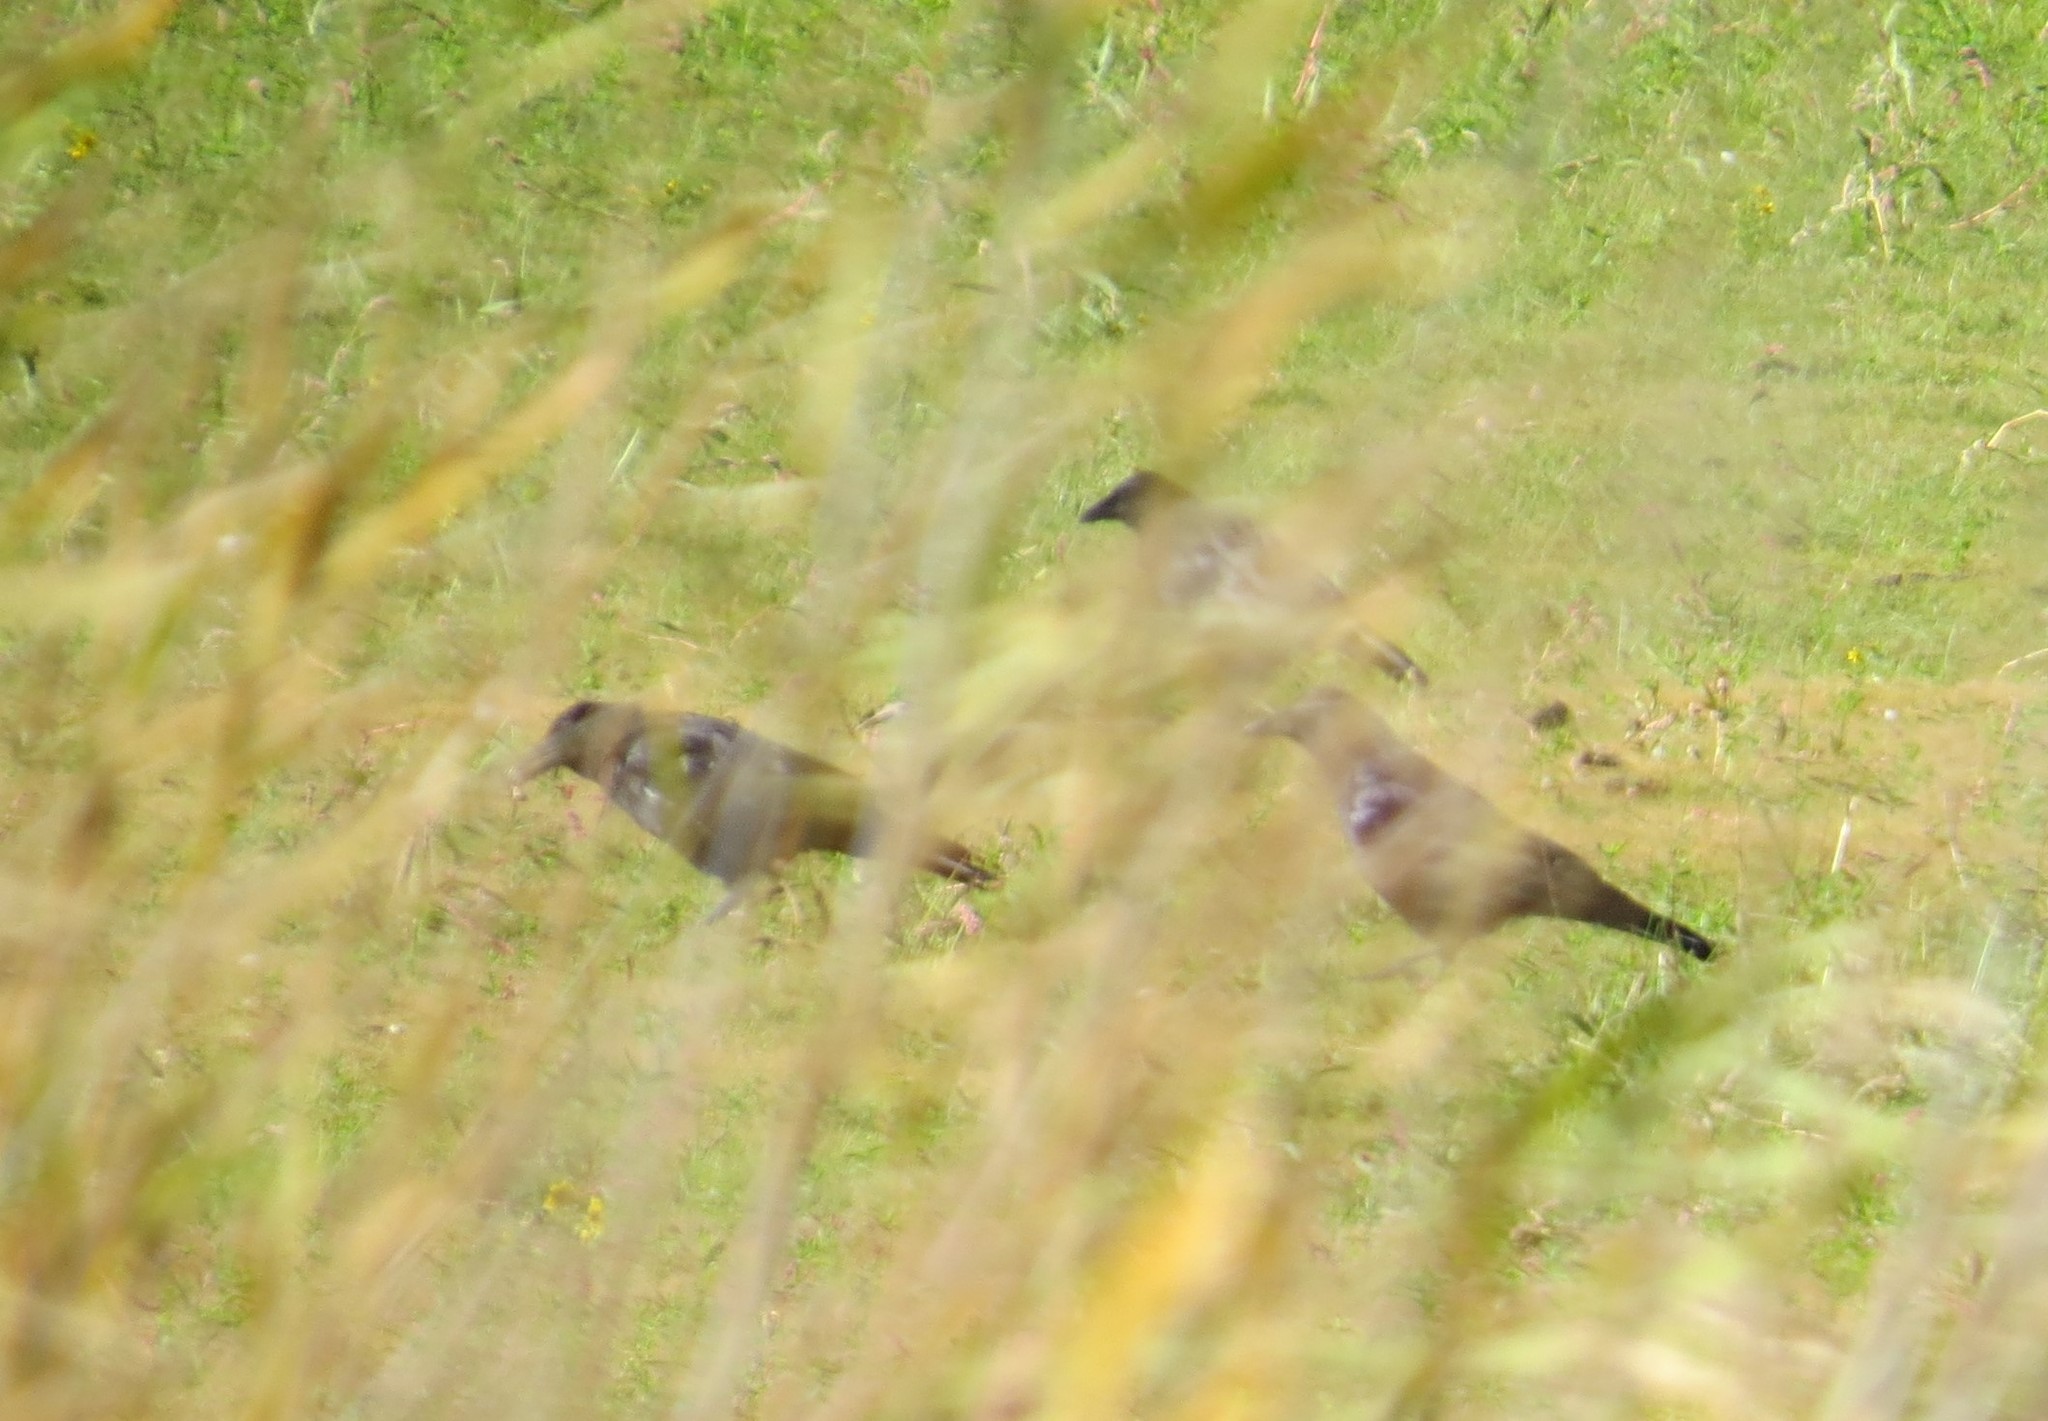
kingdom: Animalia
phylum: Chordata
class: Aves
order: Passeriformes
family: Corvidae
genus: Corvus
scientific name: Corvus corax
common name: Common raven
